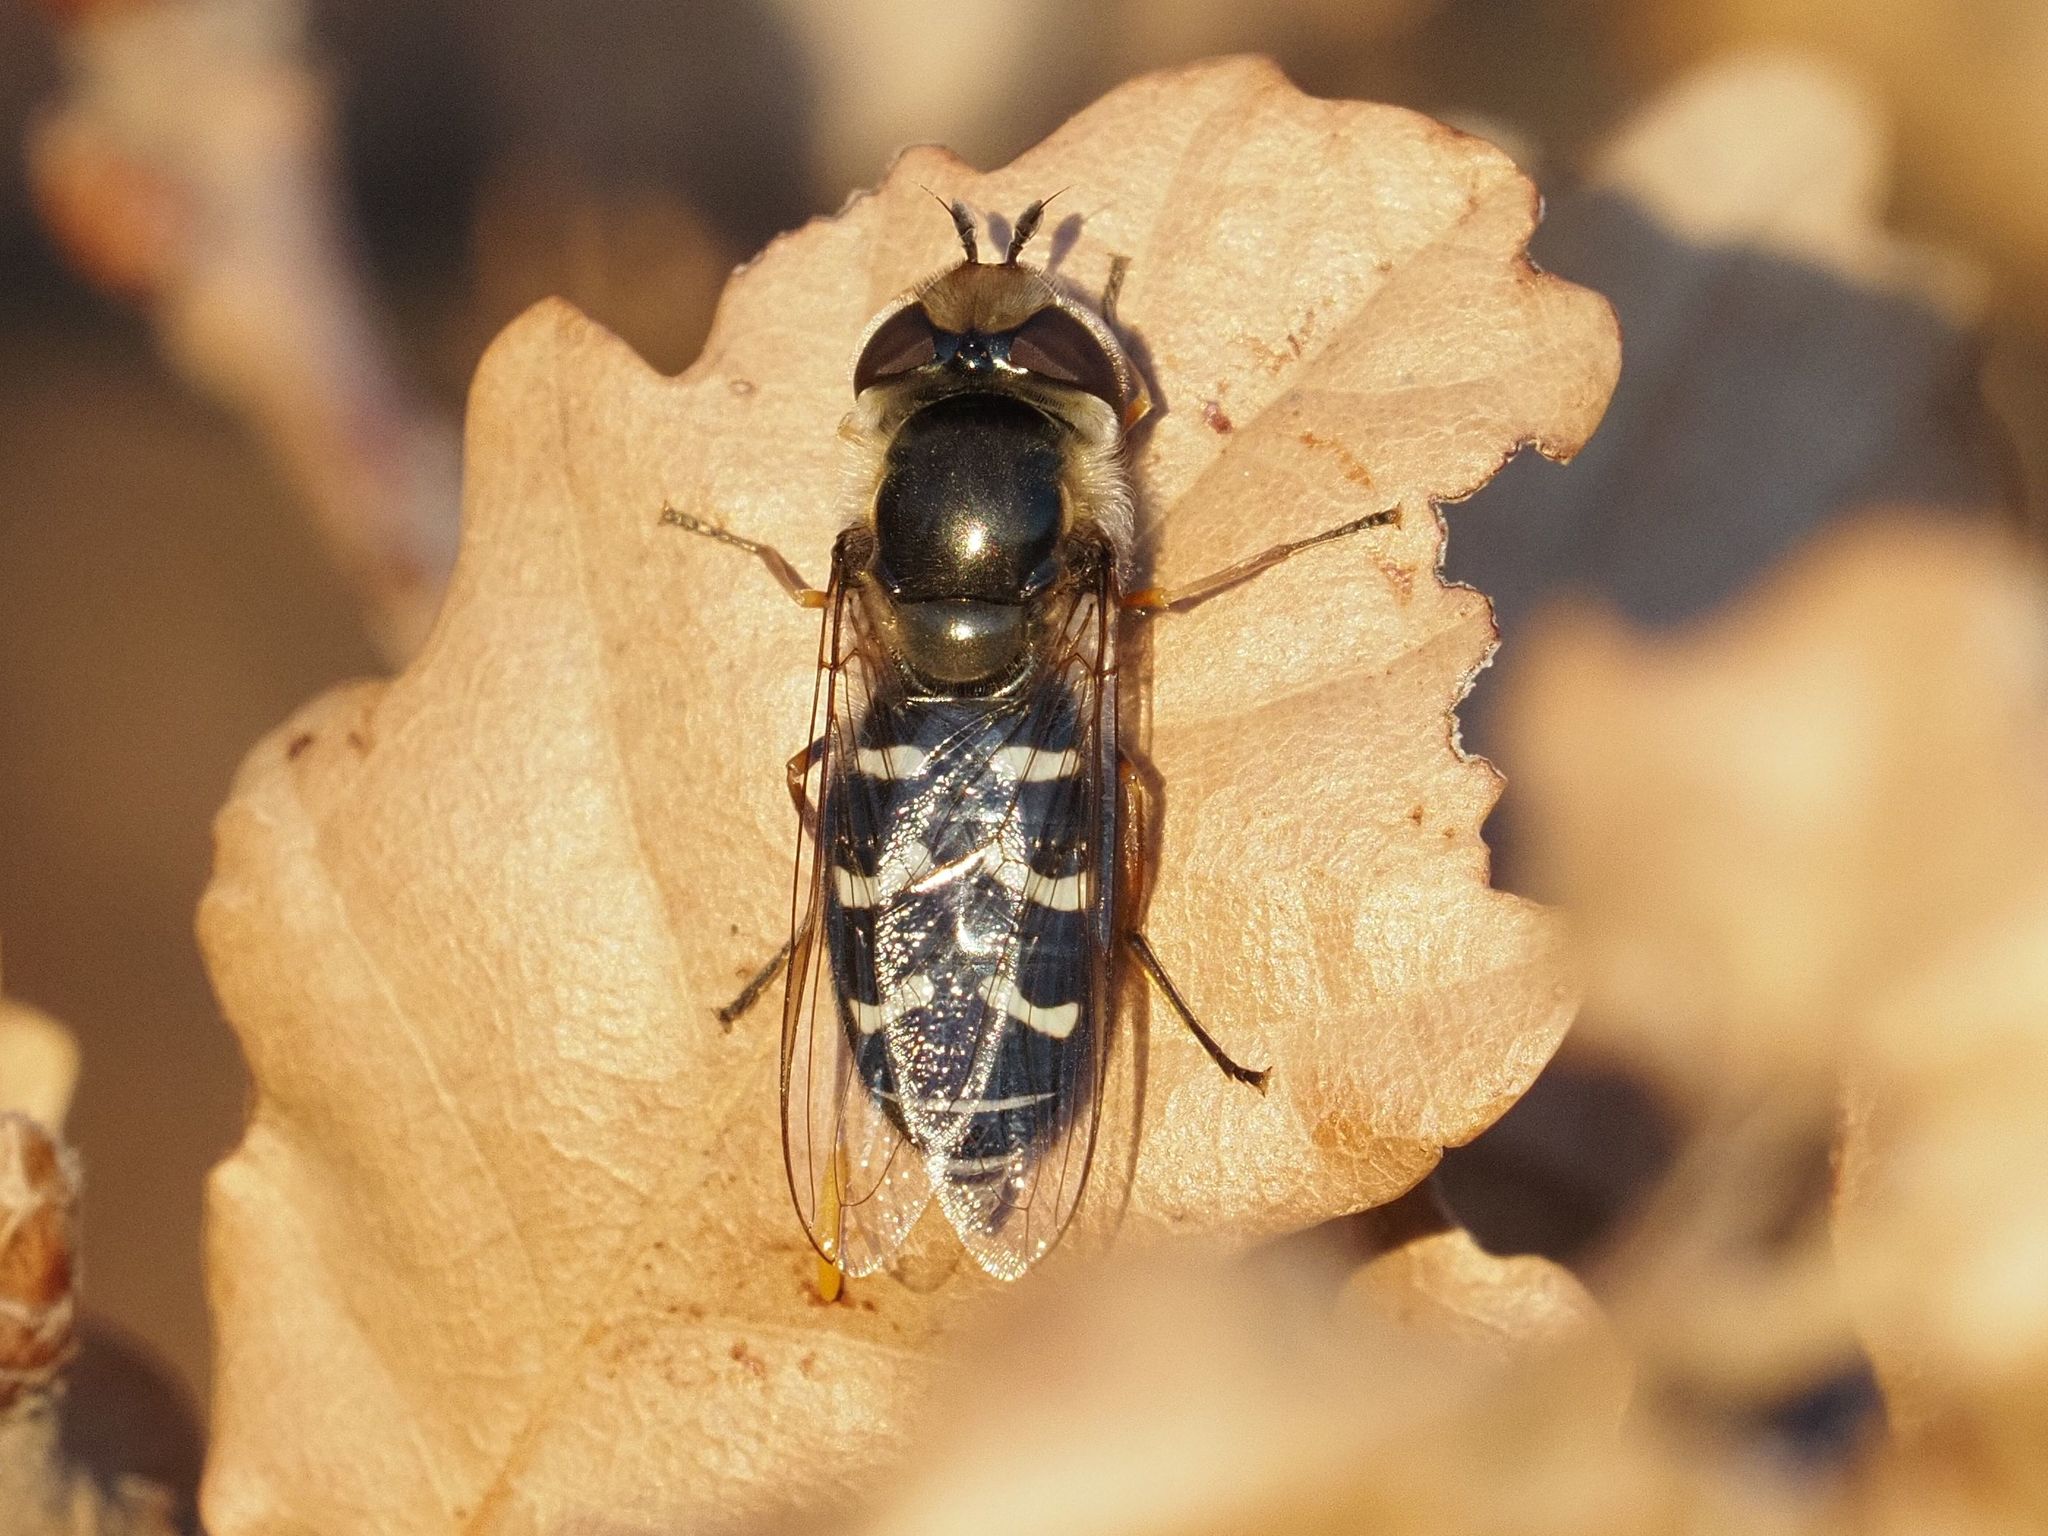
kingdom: Animalia
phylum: Arthropoda
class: Insecta
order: Diptera
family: Syrphidae
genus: Scaeva
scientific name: Scaeva pyrastri
